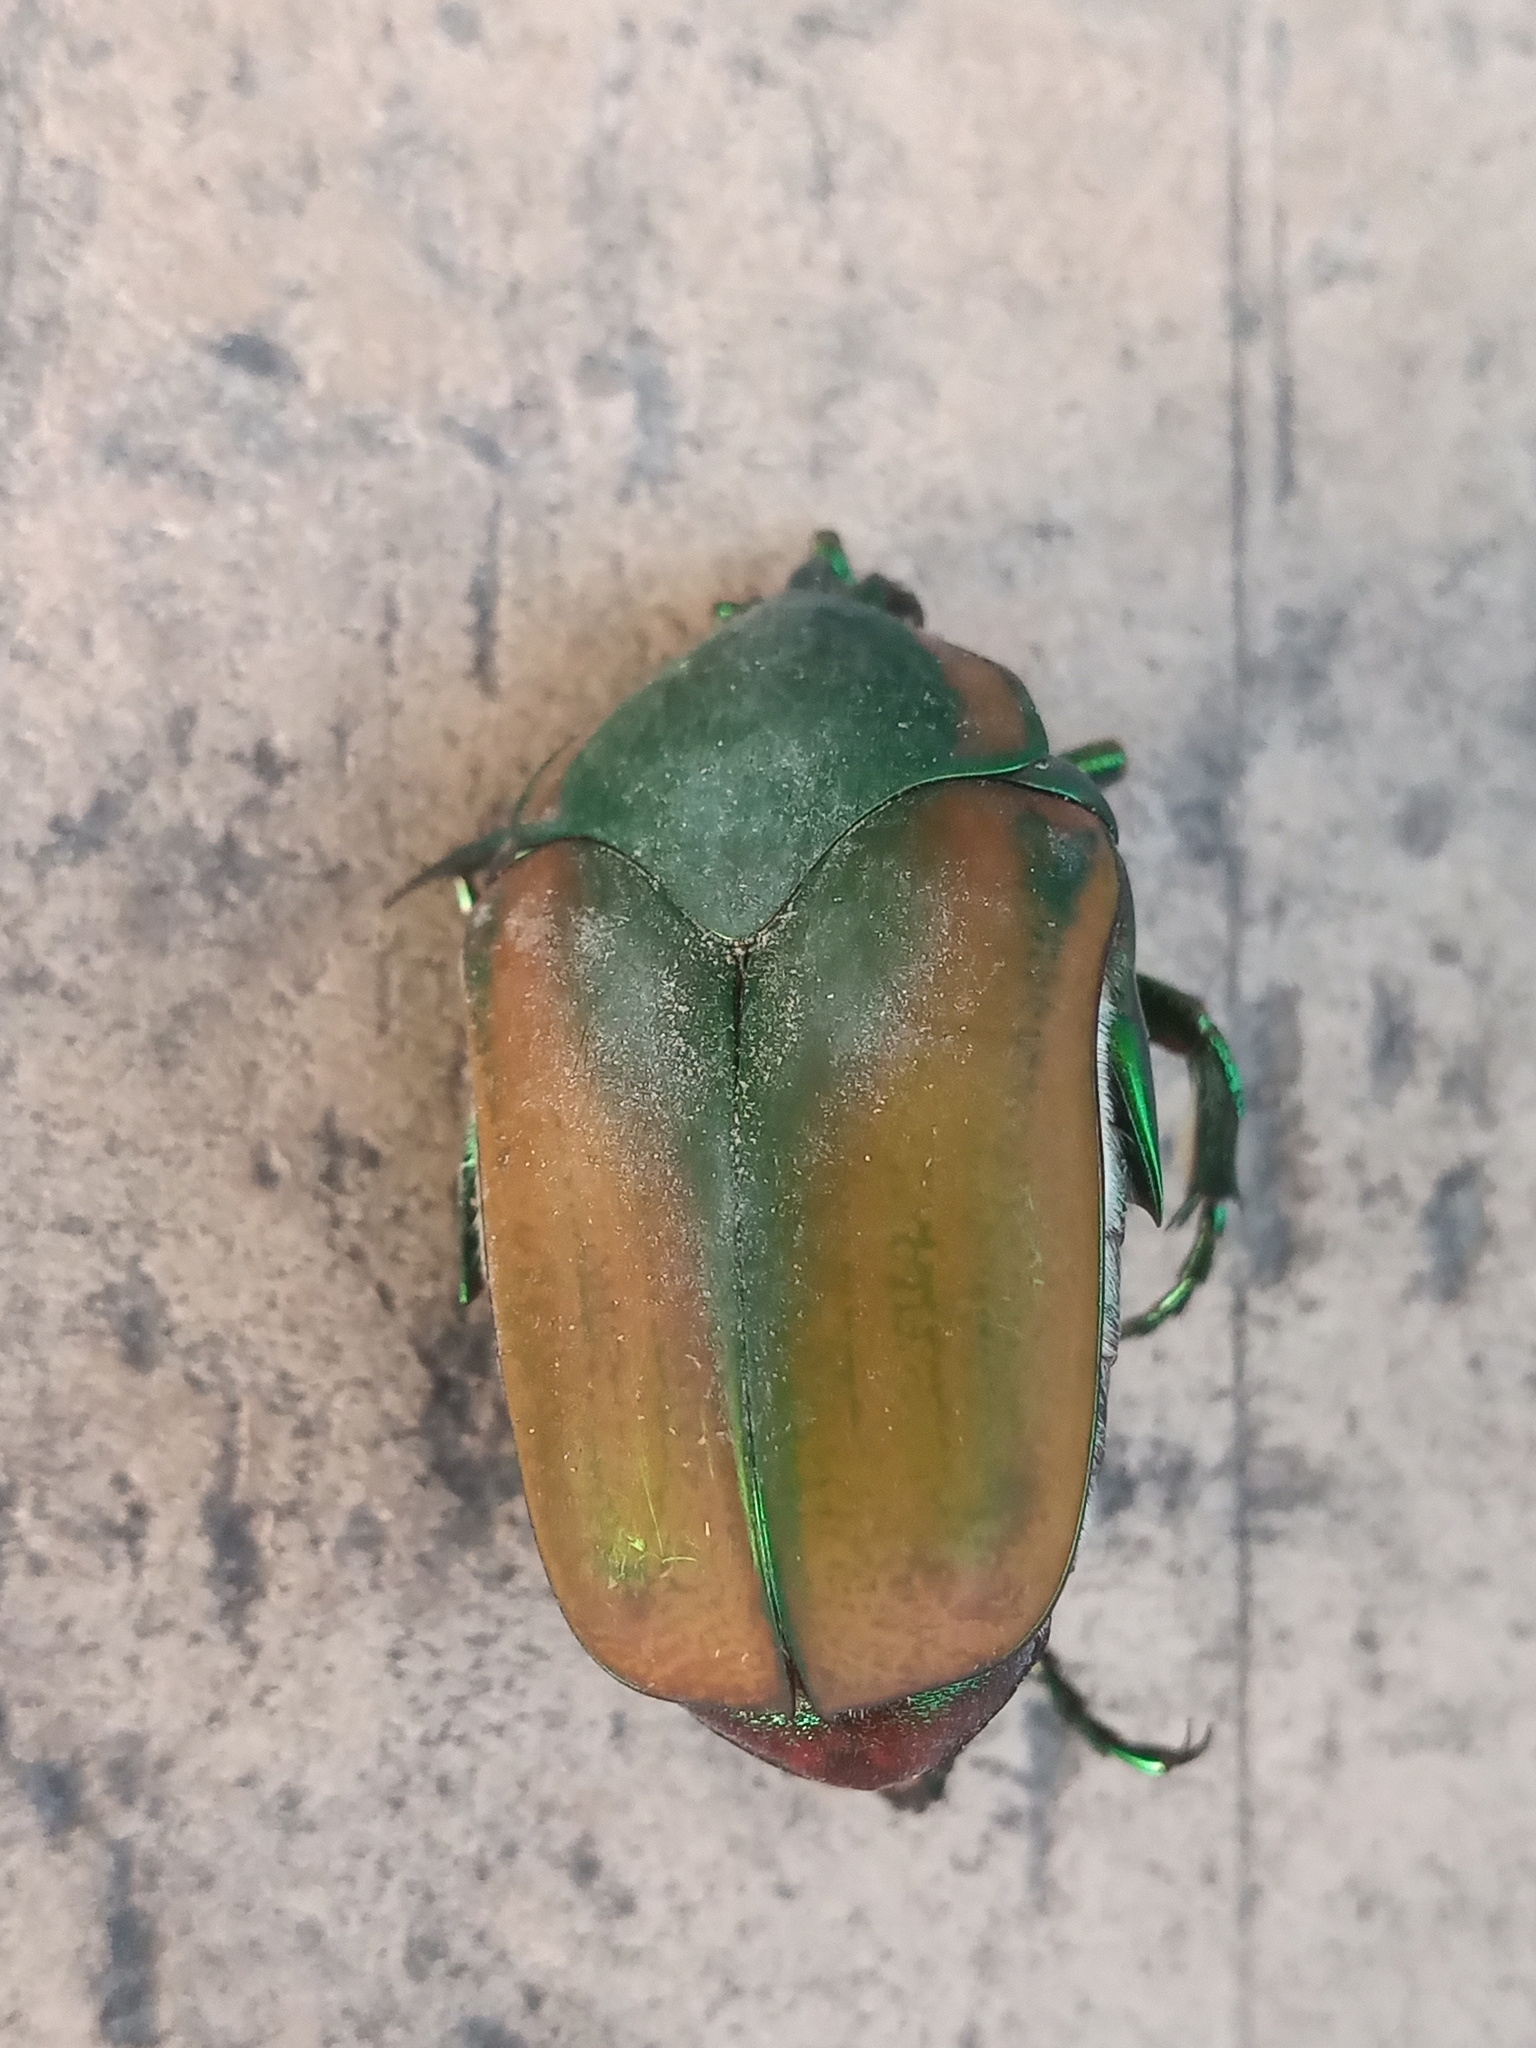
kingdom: Animalia
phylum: Arthropoda
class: Insecta
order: Coleoptera
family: Scarabaeidae
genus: Cotinis
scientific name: Cotinis mutabilis
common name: Figeater beetle
